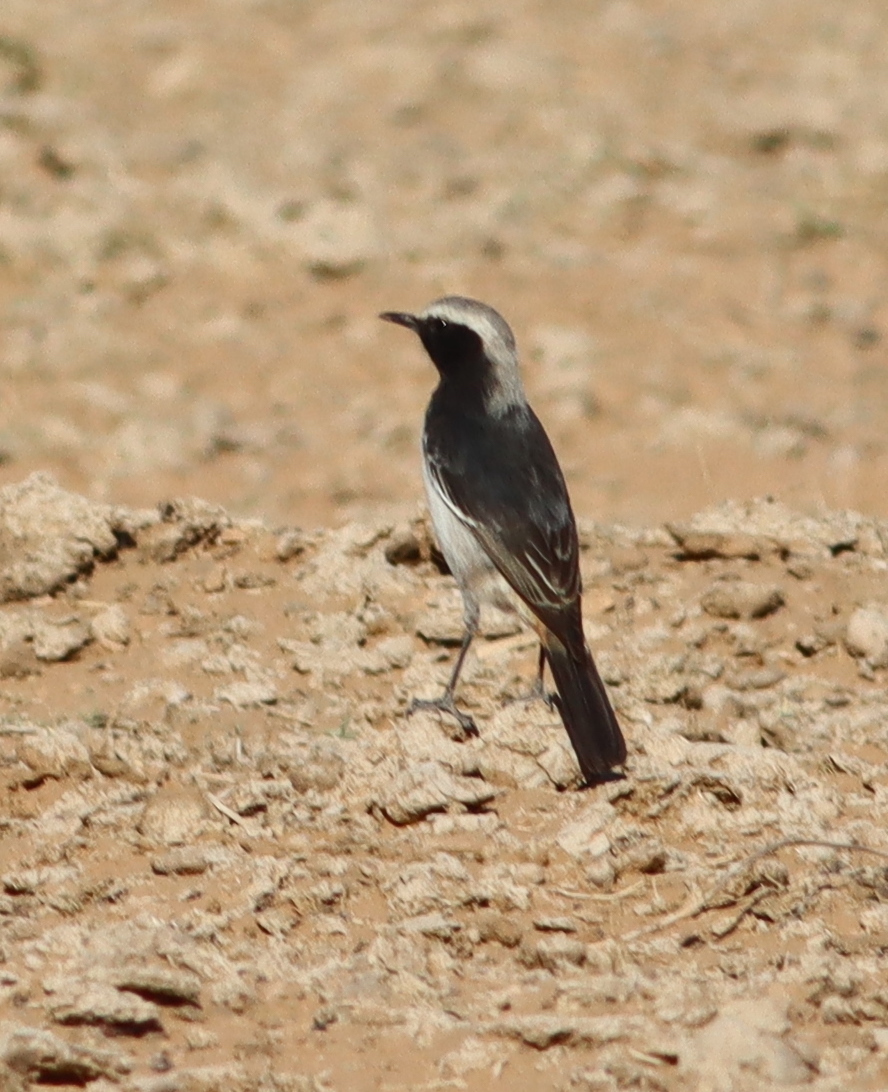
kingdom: Animalia
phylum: Chordata
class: Aves
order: Passeriformes
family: Muscicapidae
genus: Oenanthe
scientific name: Oenanthe moesta
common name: Red-rumped wheatear
